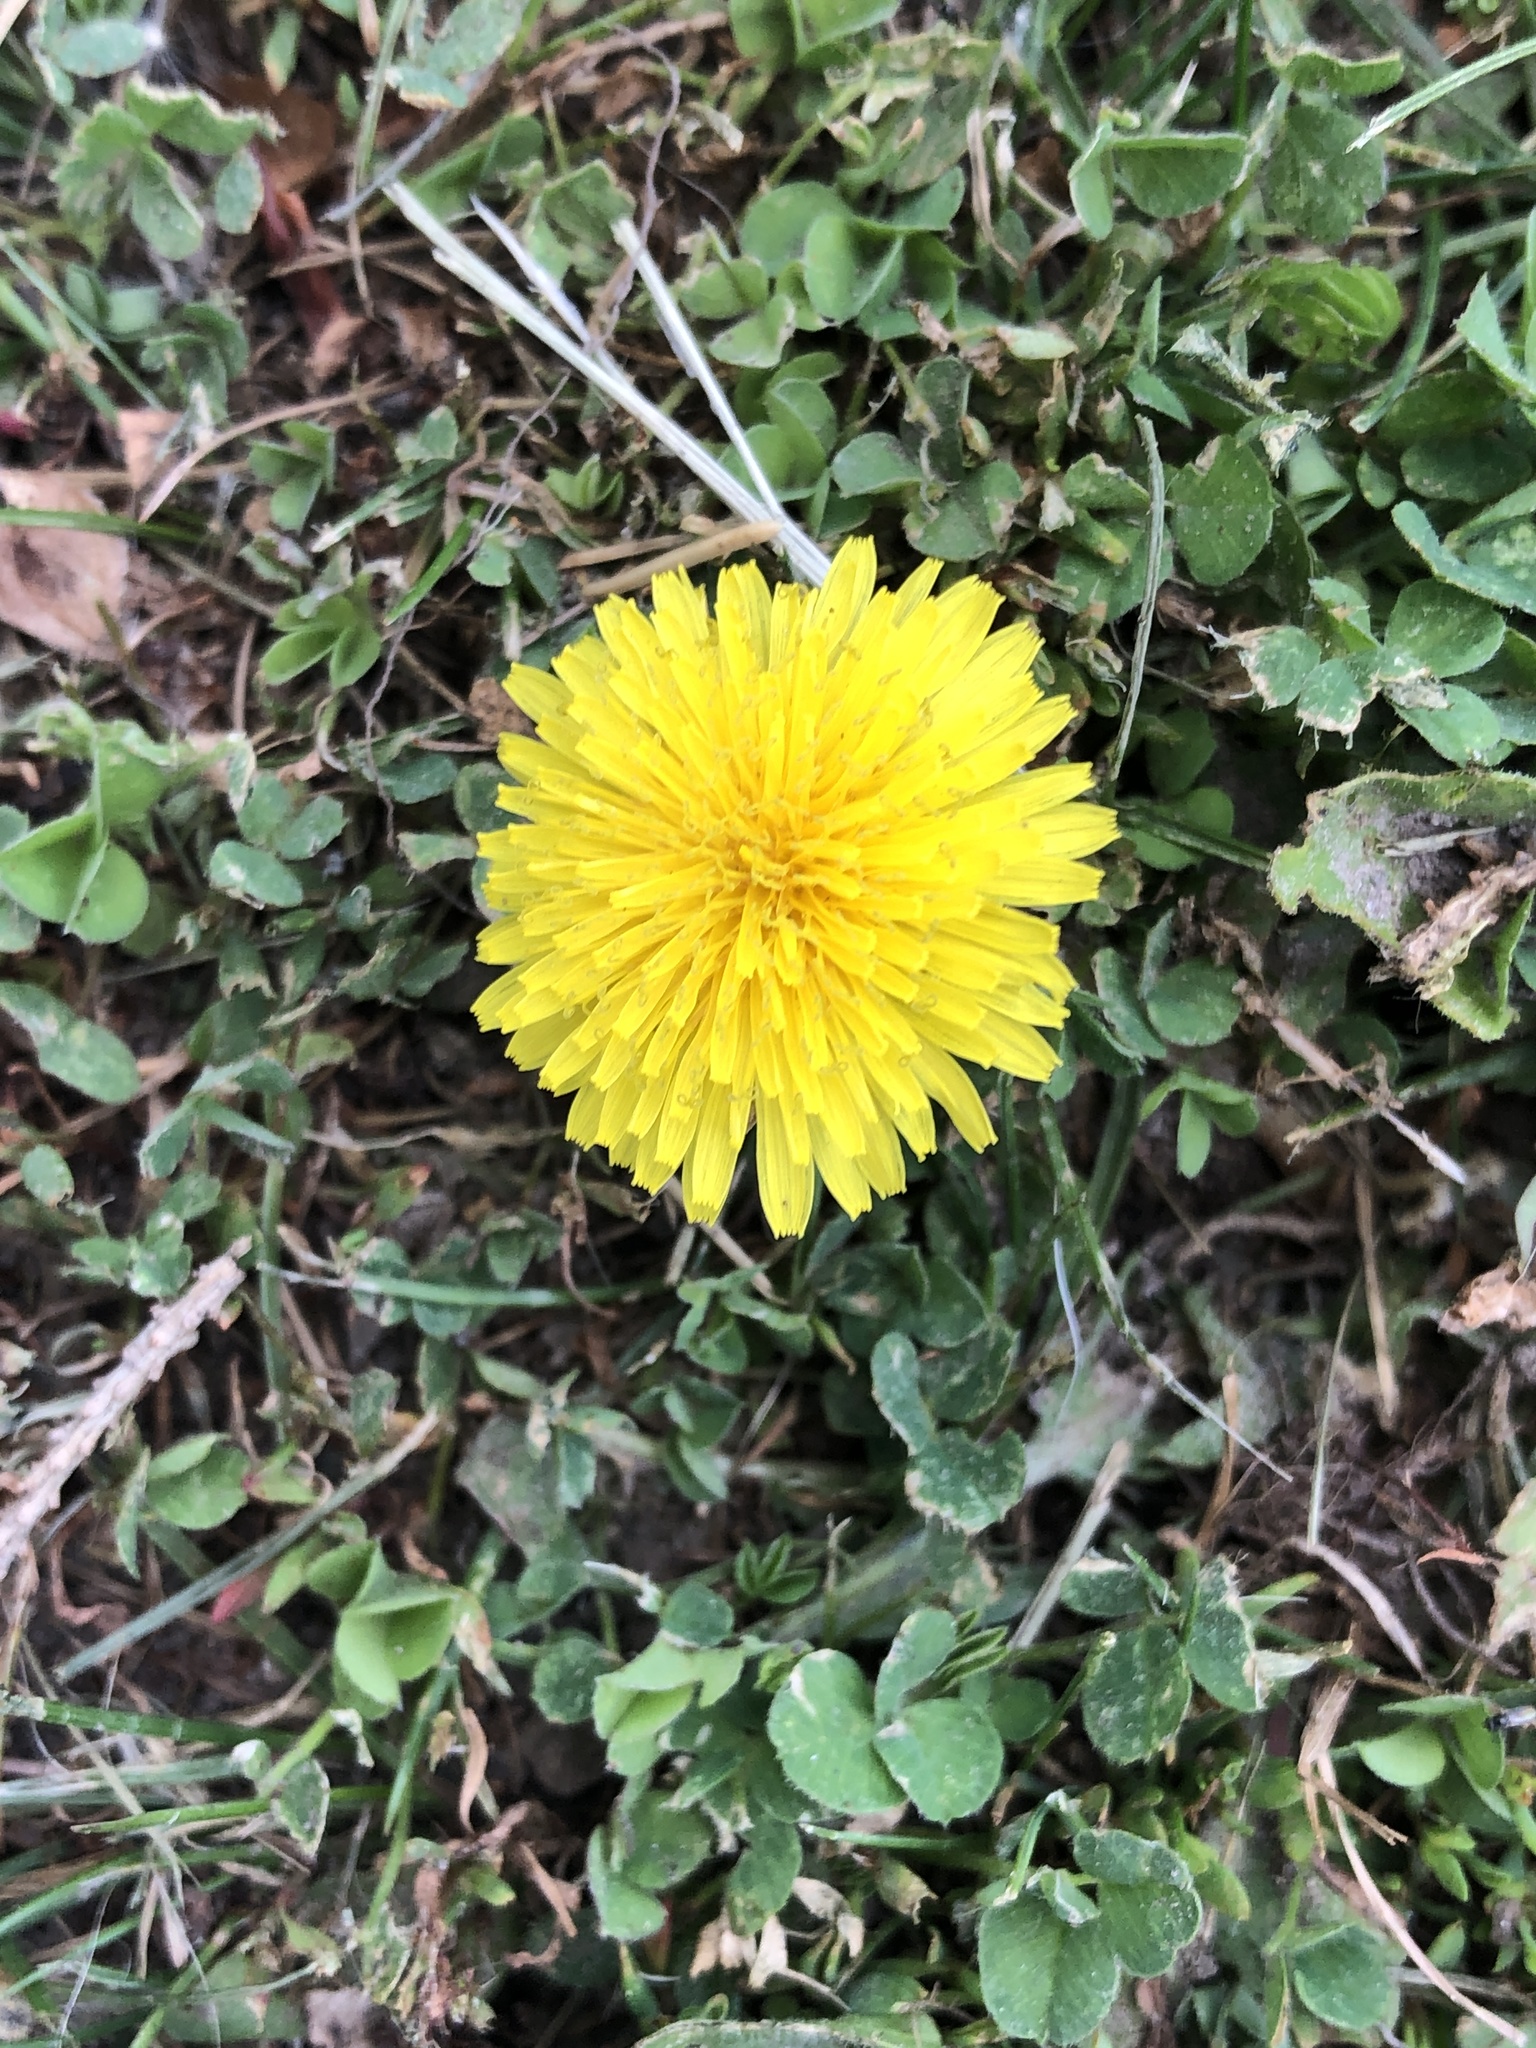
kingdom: Plantae
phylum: Tracheophyta
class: Magnoliopsida
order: Asterales
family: Asteraceae
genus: Taraxacum
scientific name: Taraxacum officinale
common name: Common dandelion
